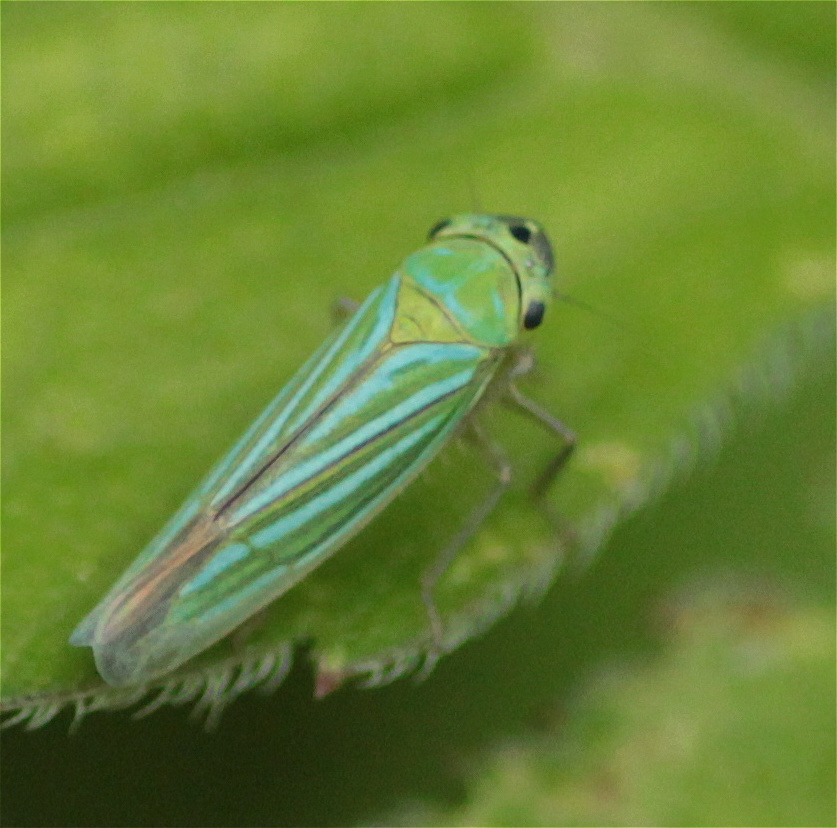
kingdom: Animalia
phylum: Arthropoda
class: Insecta
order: Hemiptera
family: Cicadellidae
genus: Chlorogonalia
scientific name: Chlorogonalia coeruleovittata
